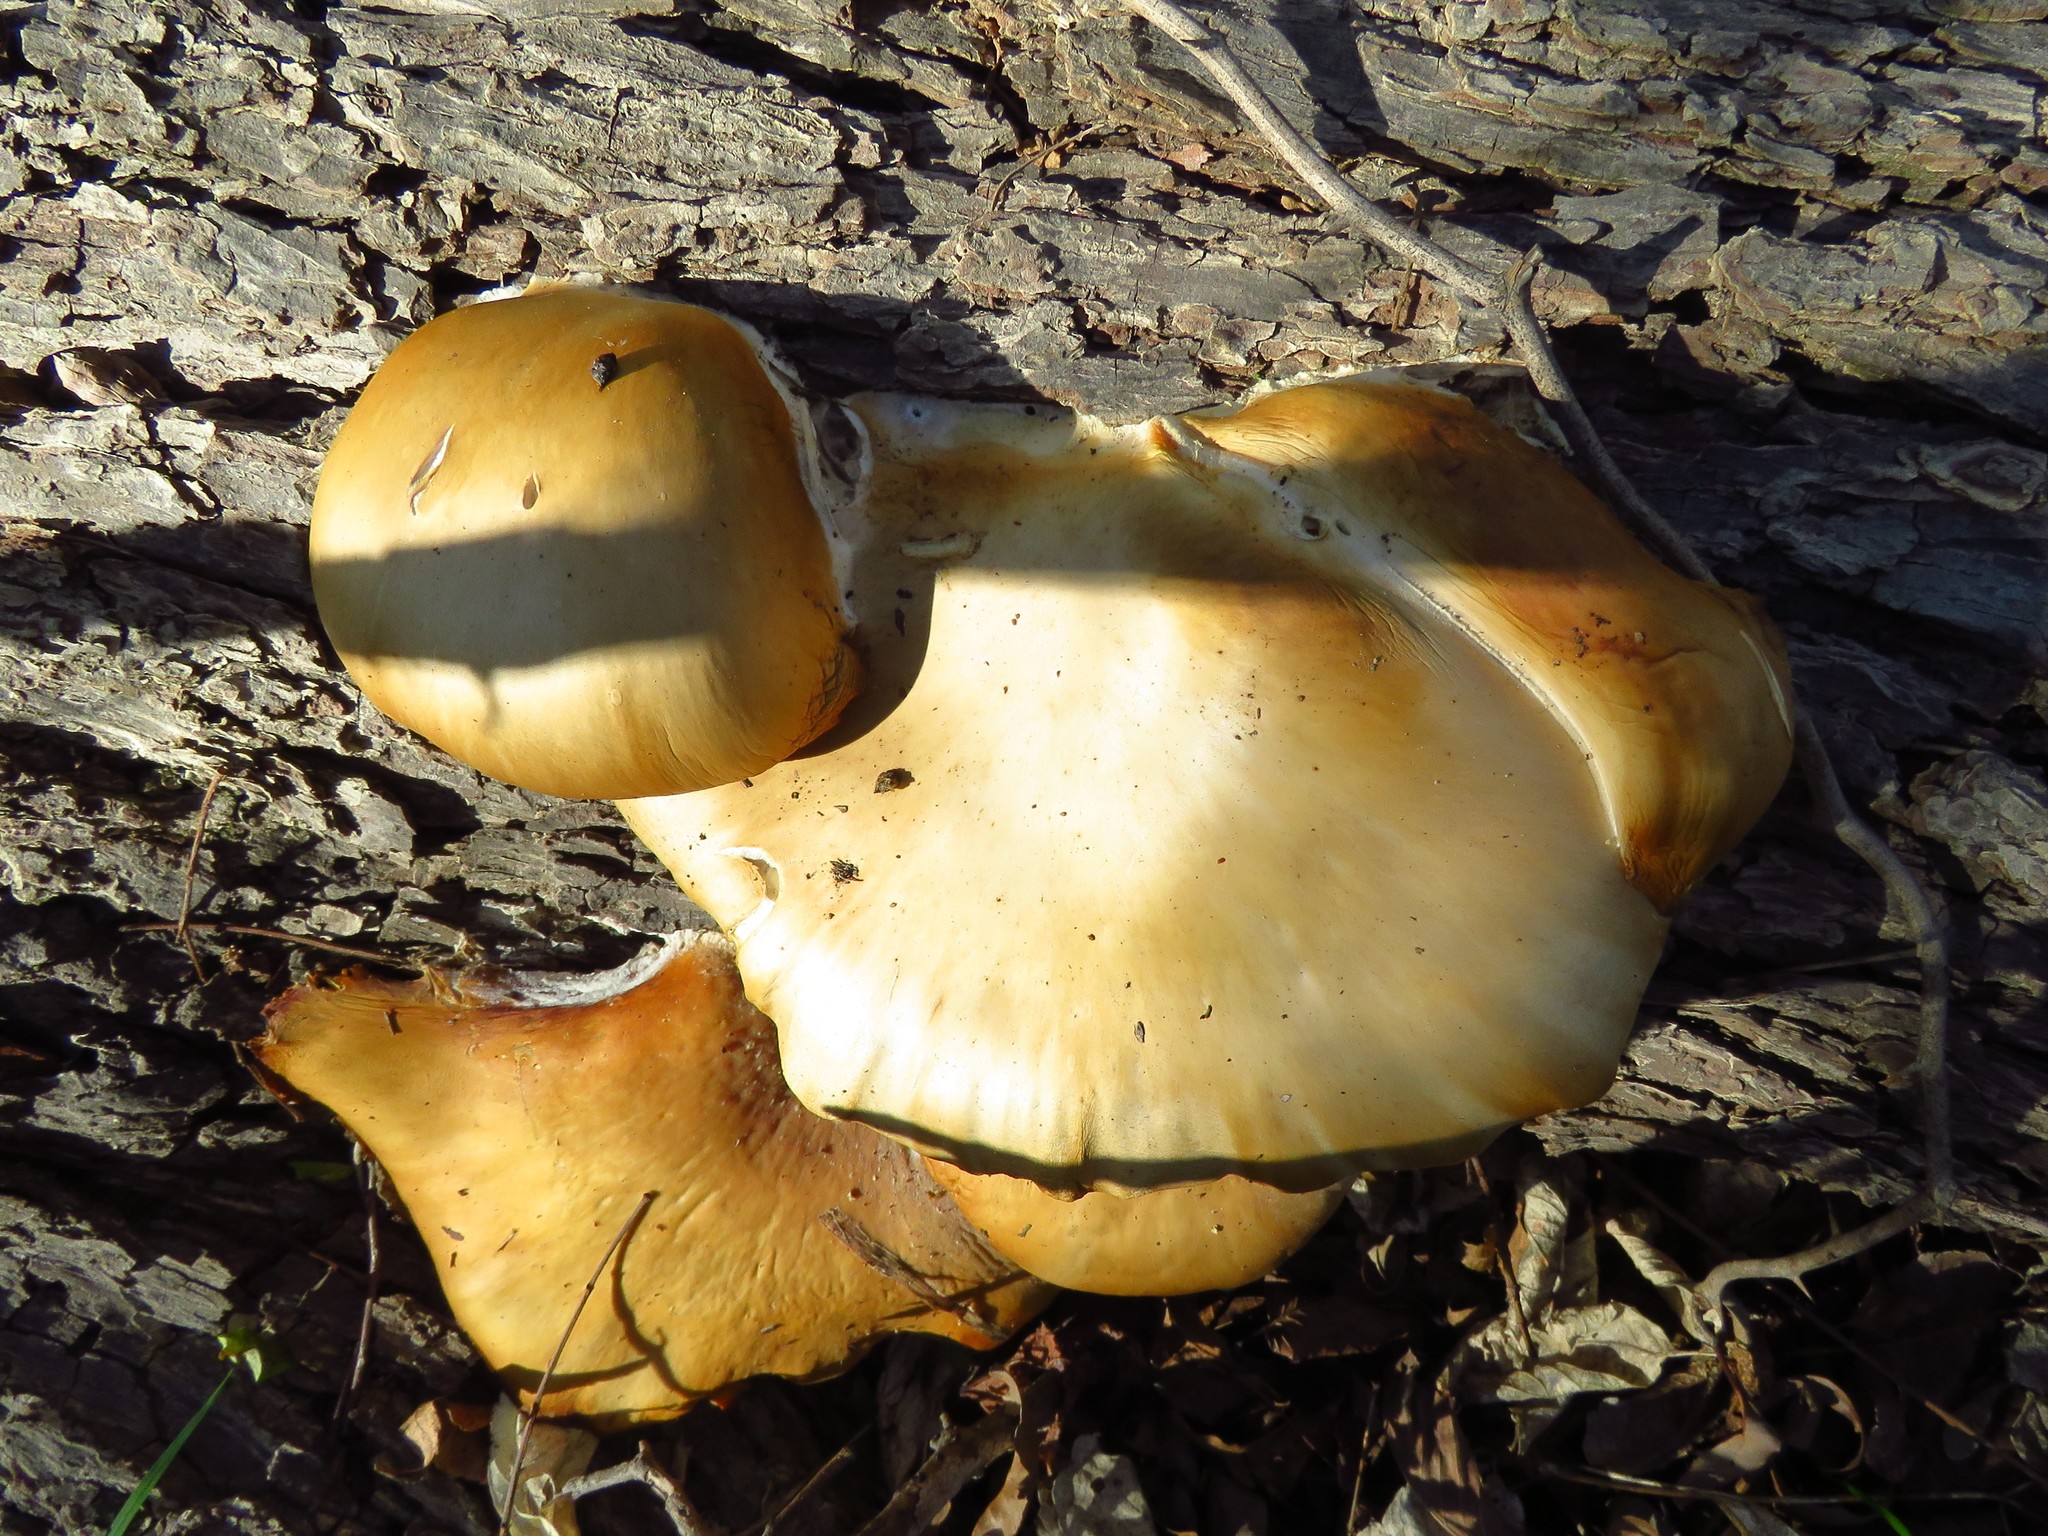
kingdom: Fungi
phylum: Basidiomycota
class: Agaricomycetes
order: Agaricales
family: Pleurotaceae
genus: Pleurotus
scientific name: Pleurotus ostreatus
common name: Oyster mushroom
